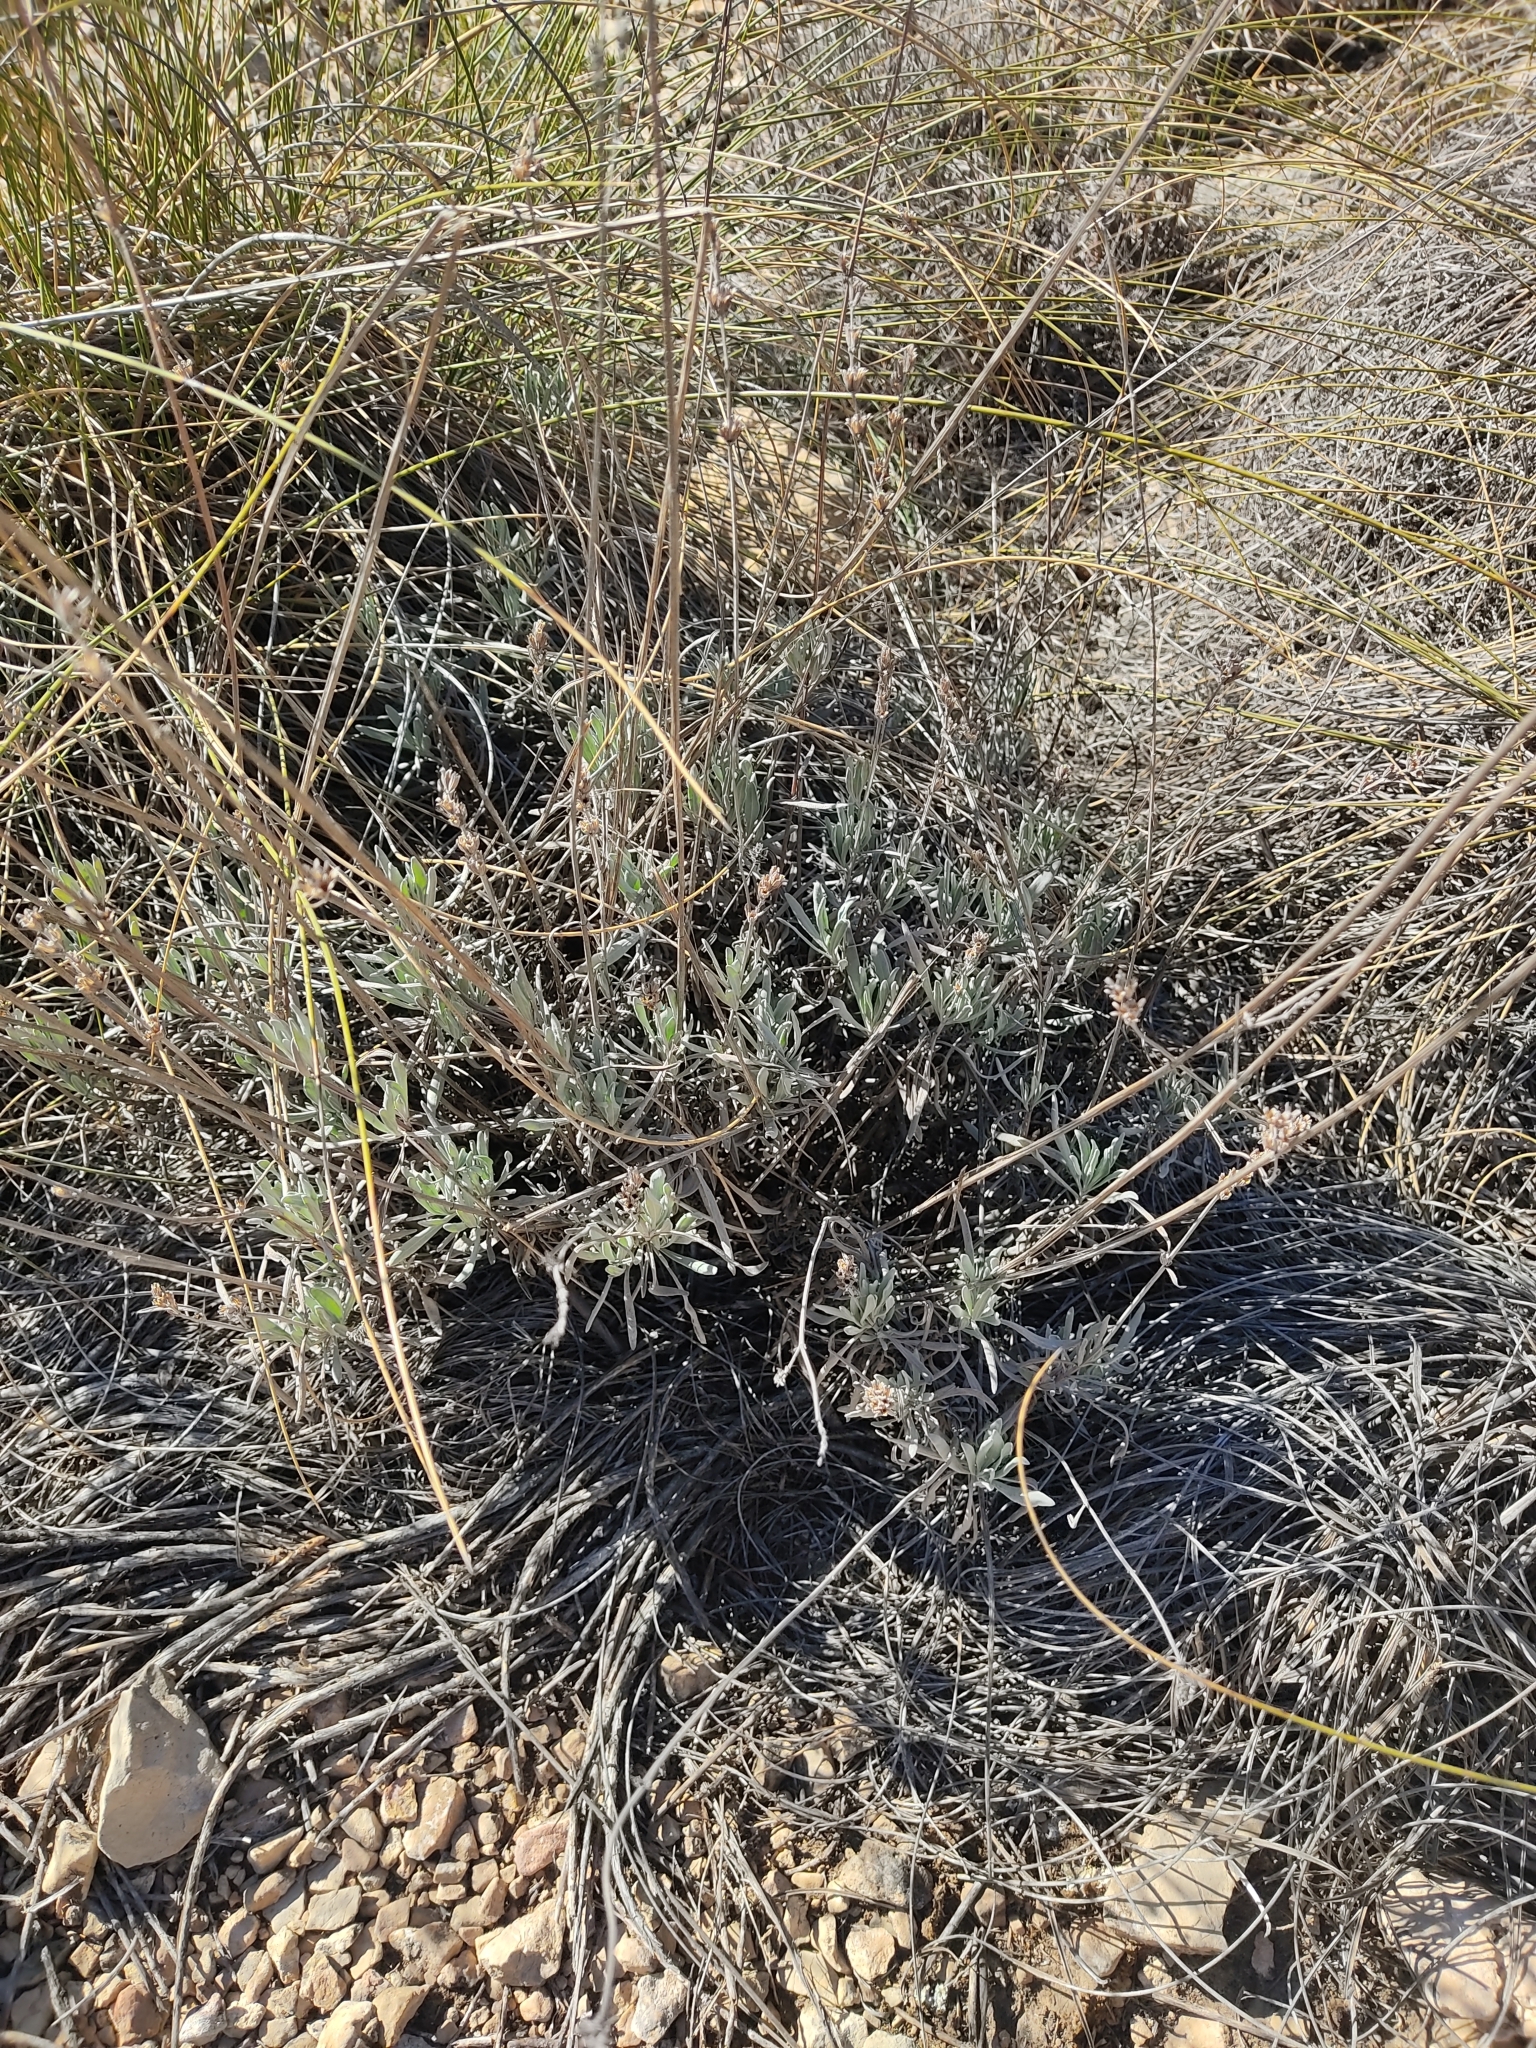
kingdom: Plantae
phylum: Tracheophyta
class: Magnoliopsida
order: Lamiales
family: Lamiaceae
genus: Lavandula
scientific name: Lavandula latifolia
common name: Spike lavendar
